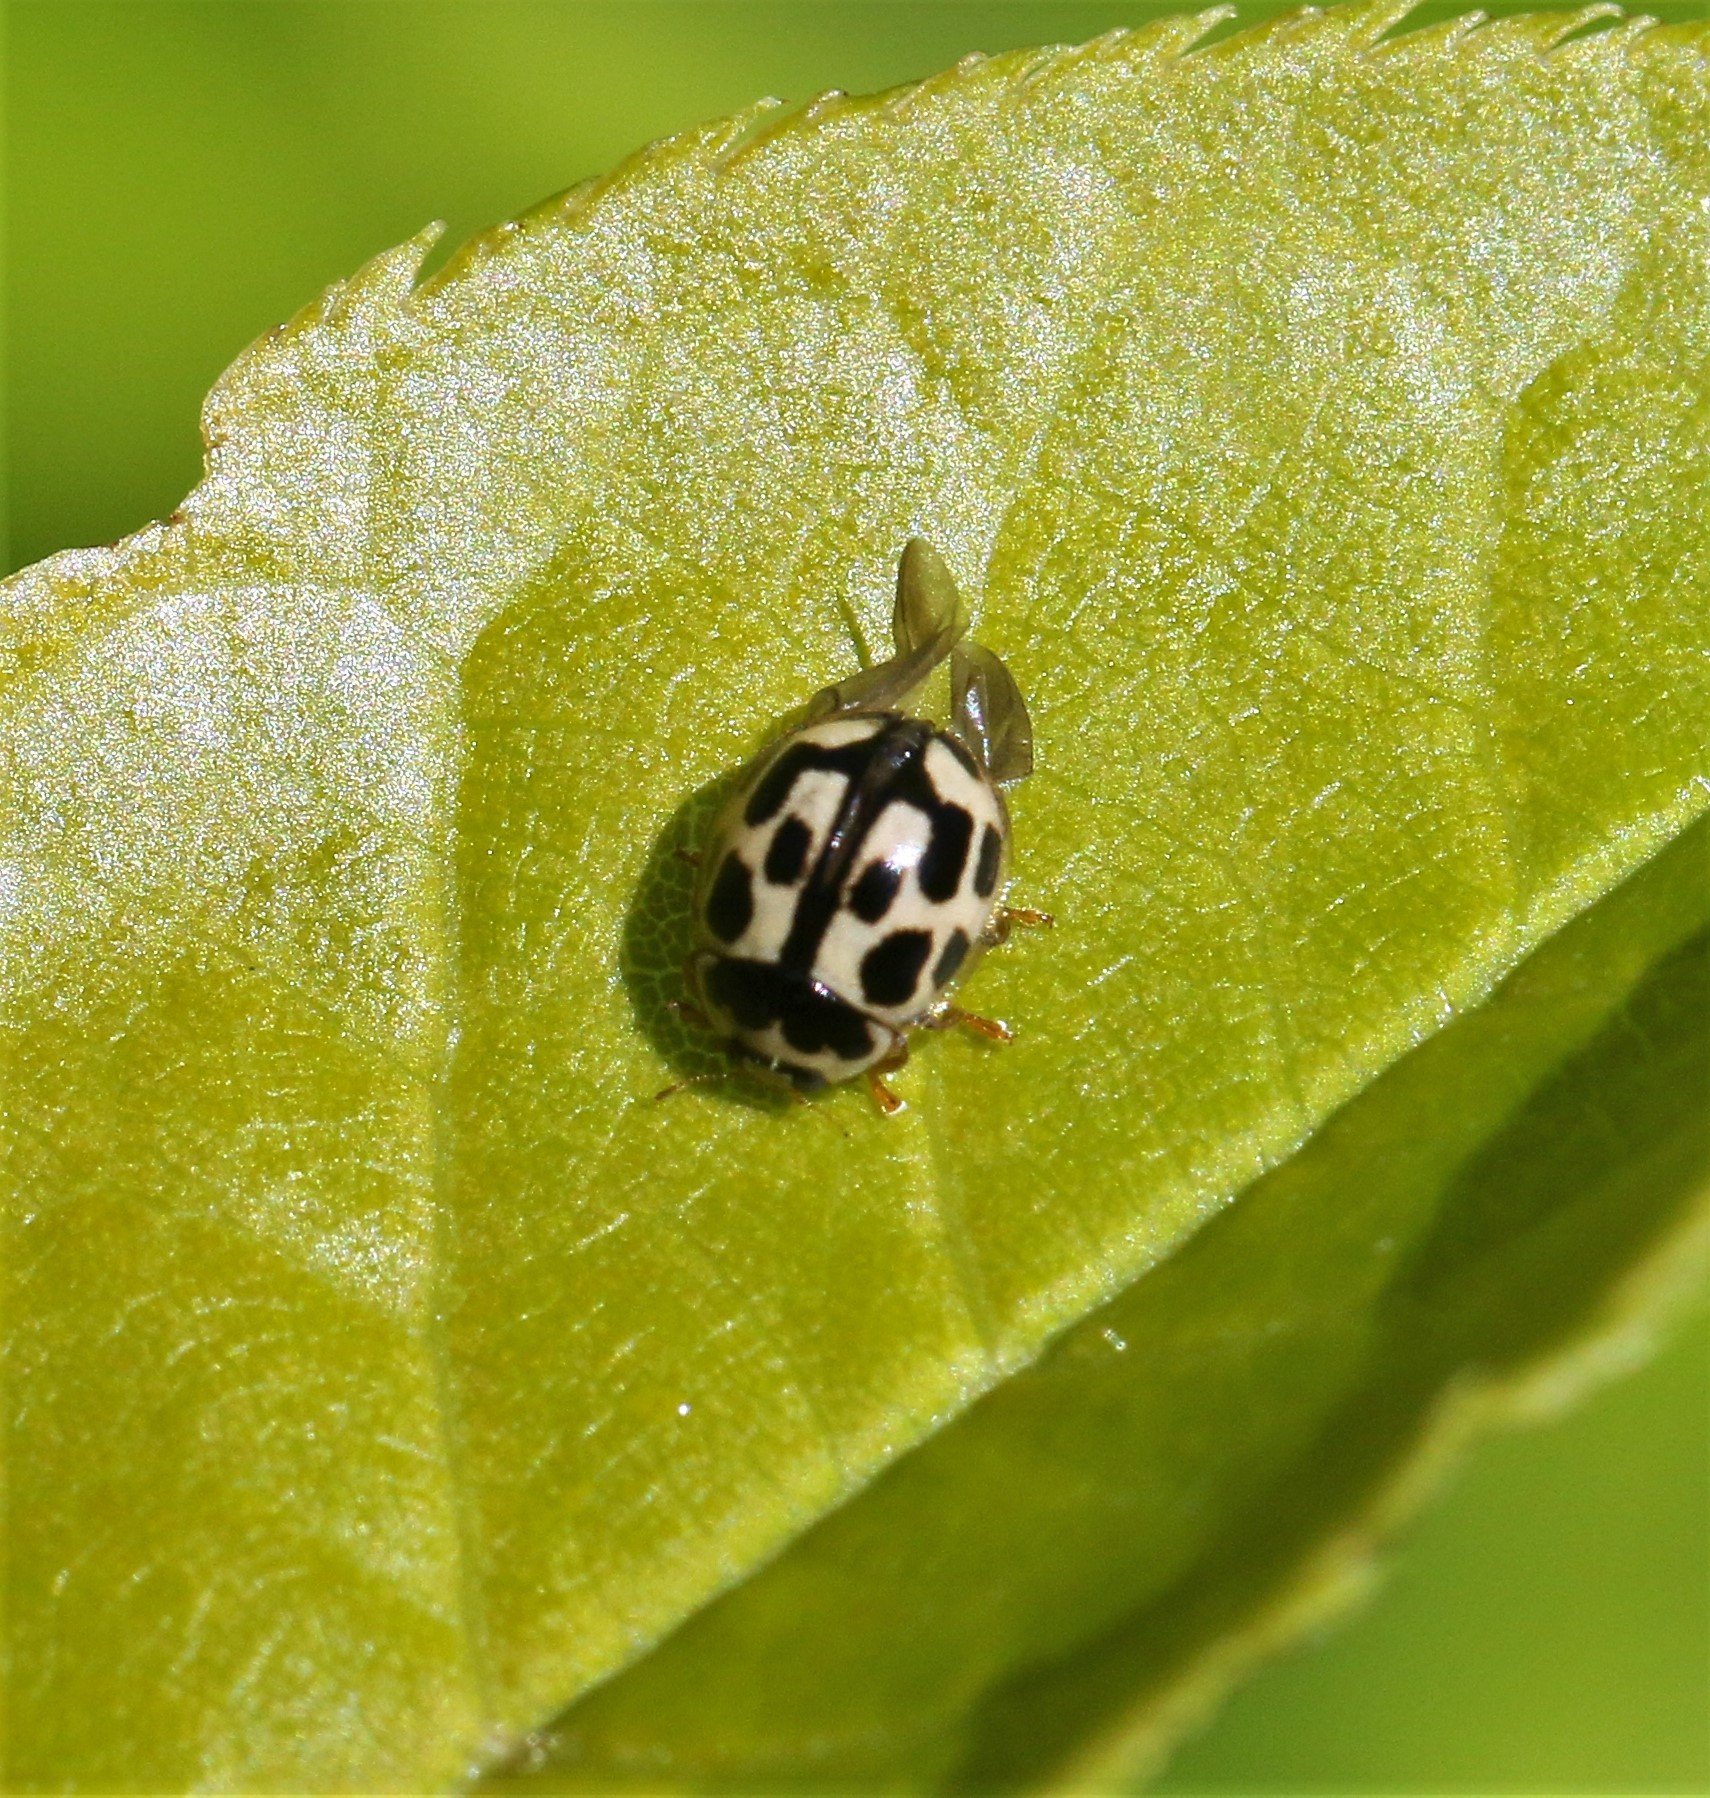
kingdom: Animalia
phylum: Arthropoda
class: Insecta
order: Coleoptera
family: Coccinellidae
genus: Propylaea
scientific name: Propylaea quatuordecimpunctata
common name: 14-spotted ladybird beetle
